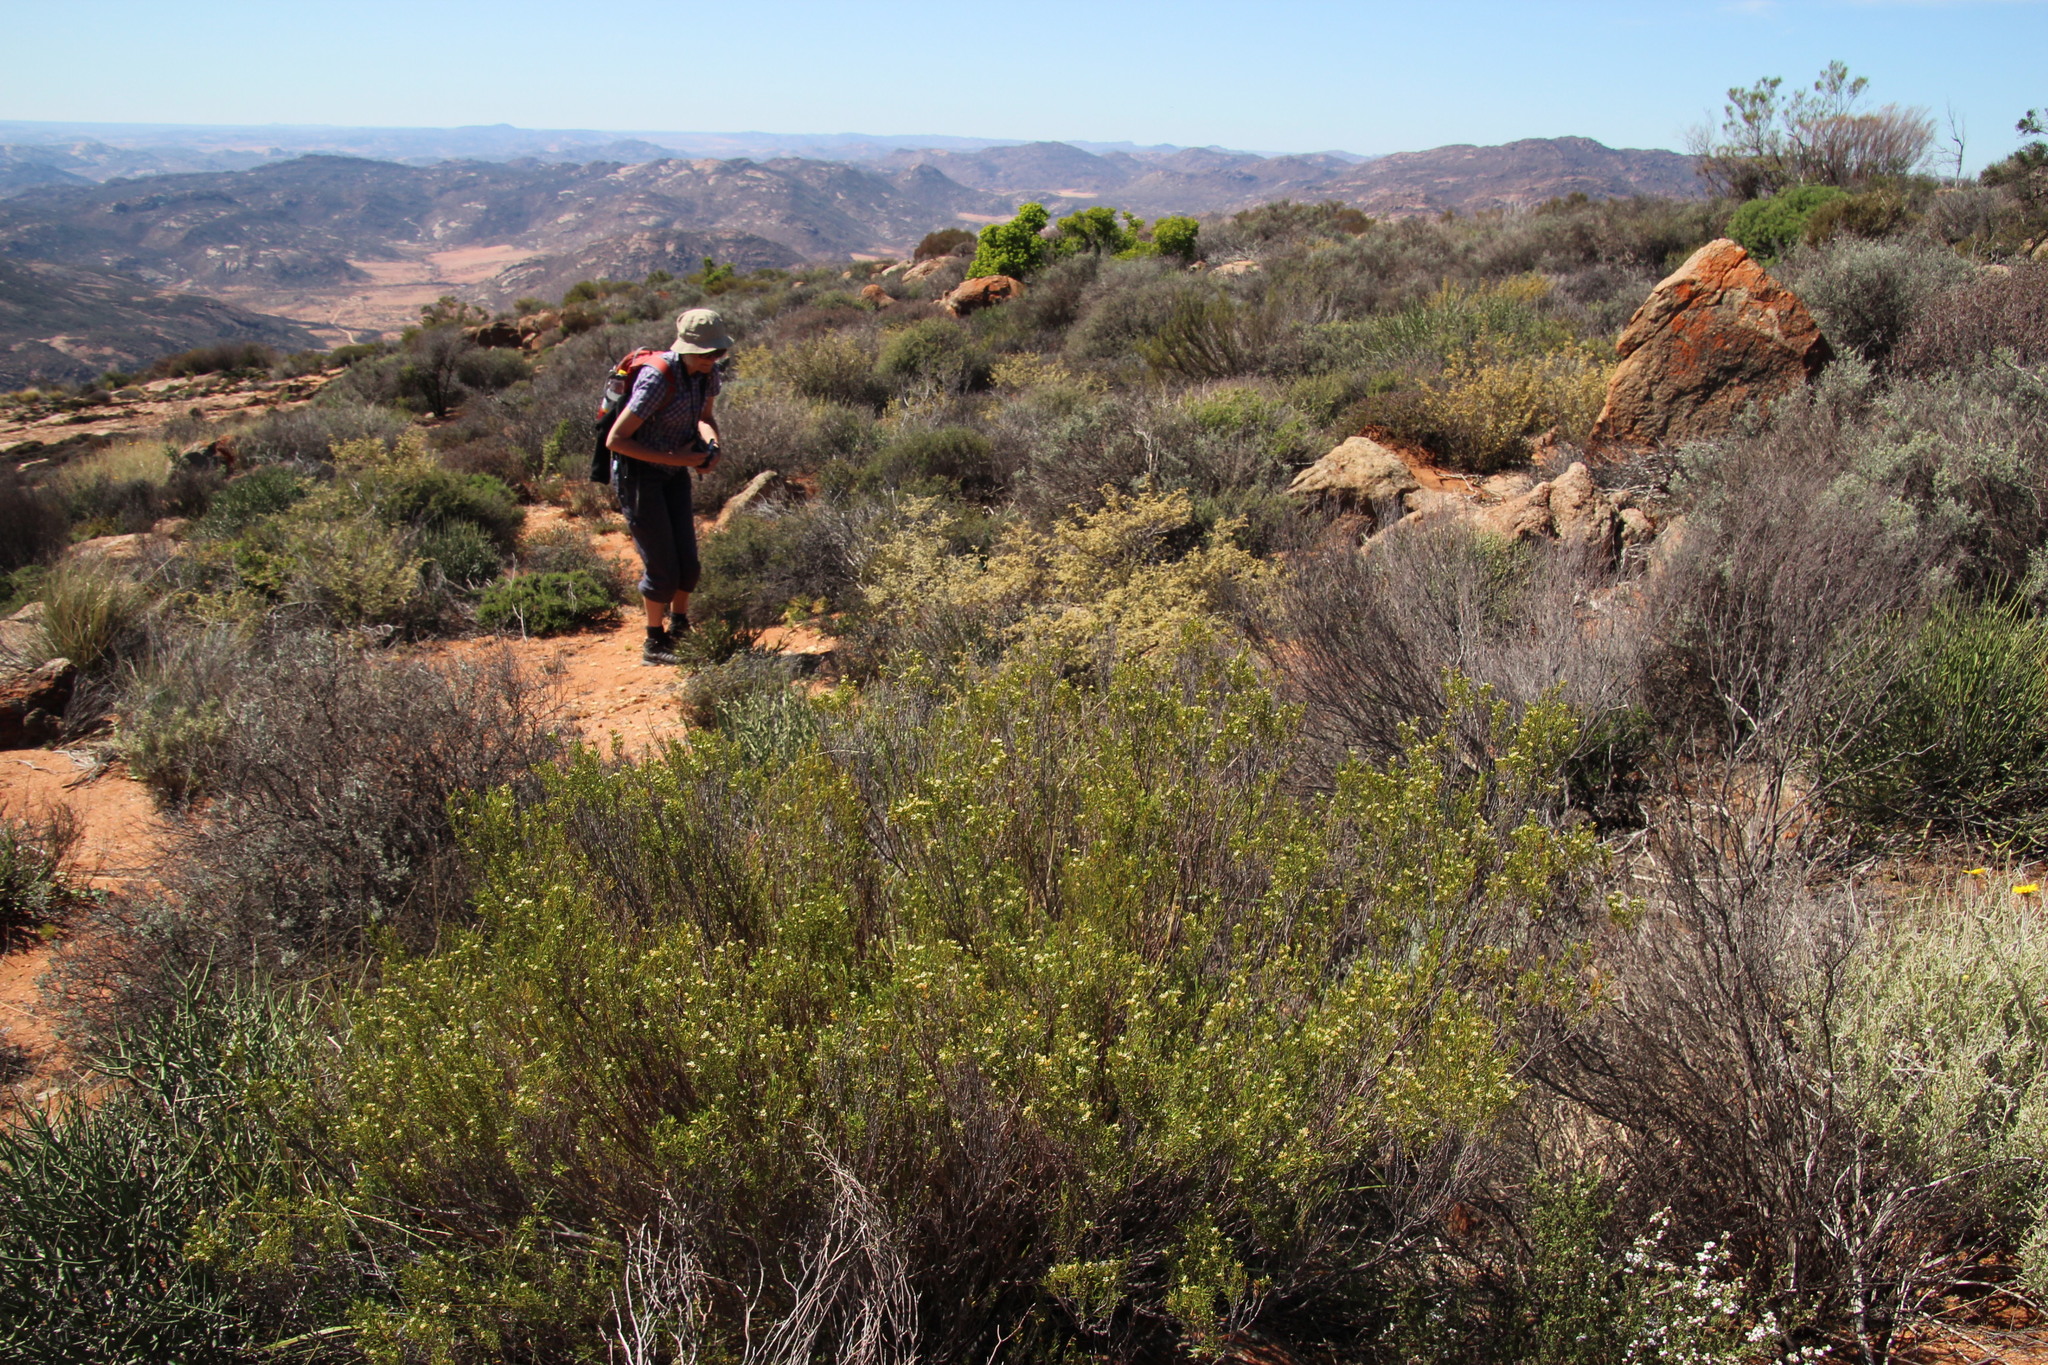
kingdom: Plantae
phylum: Tracheophyta
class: Magnoliopsida
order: Sapindales
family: Rutaceae
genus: Diosma
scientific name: Diosma acmaeophylla
